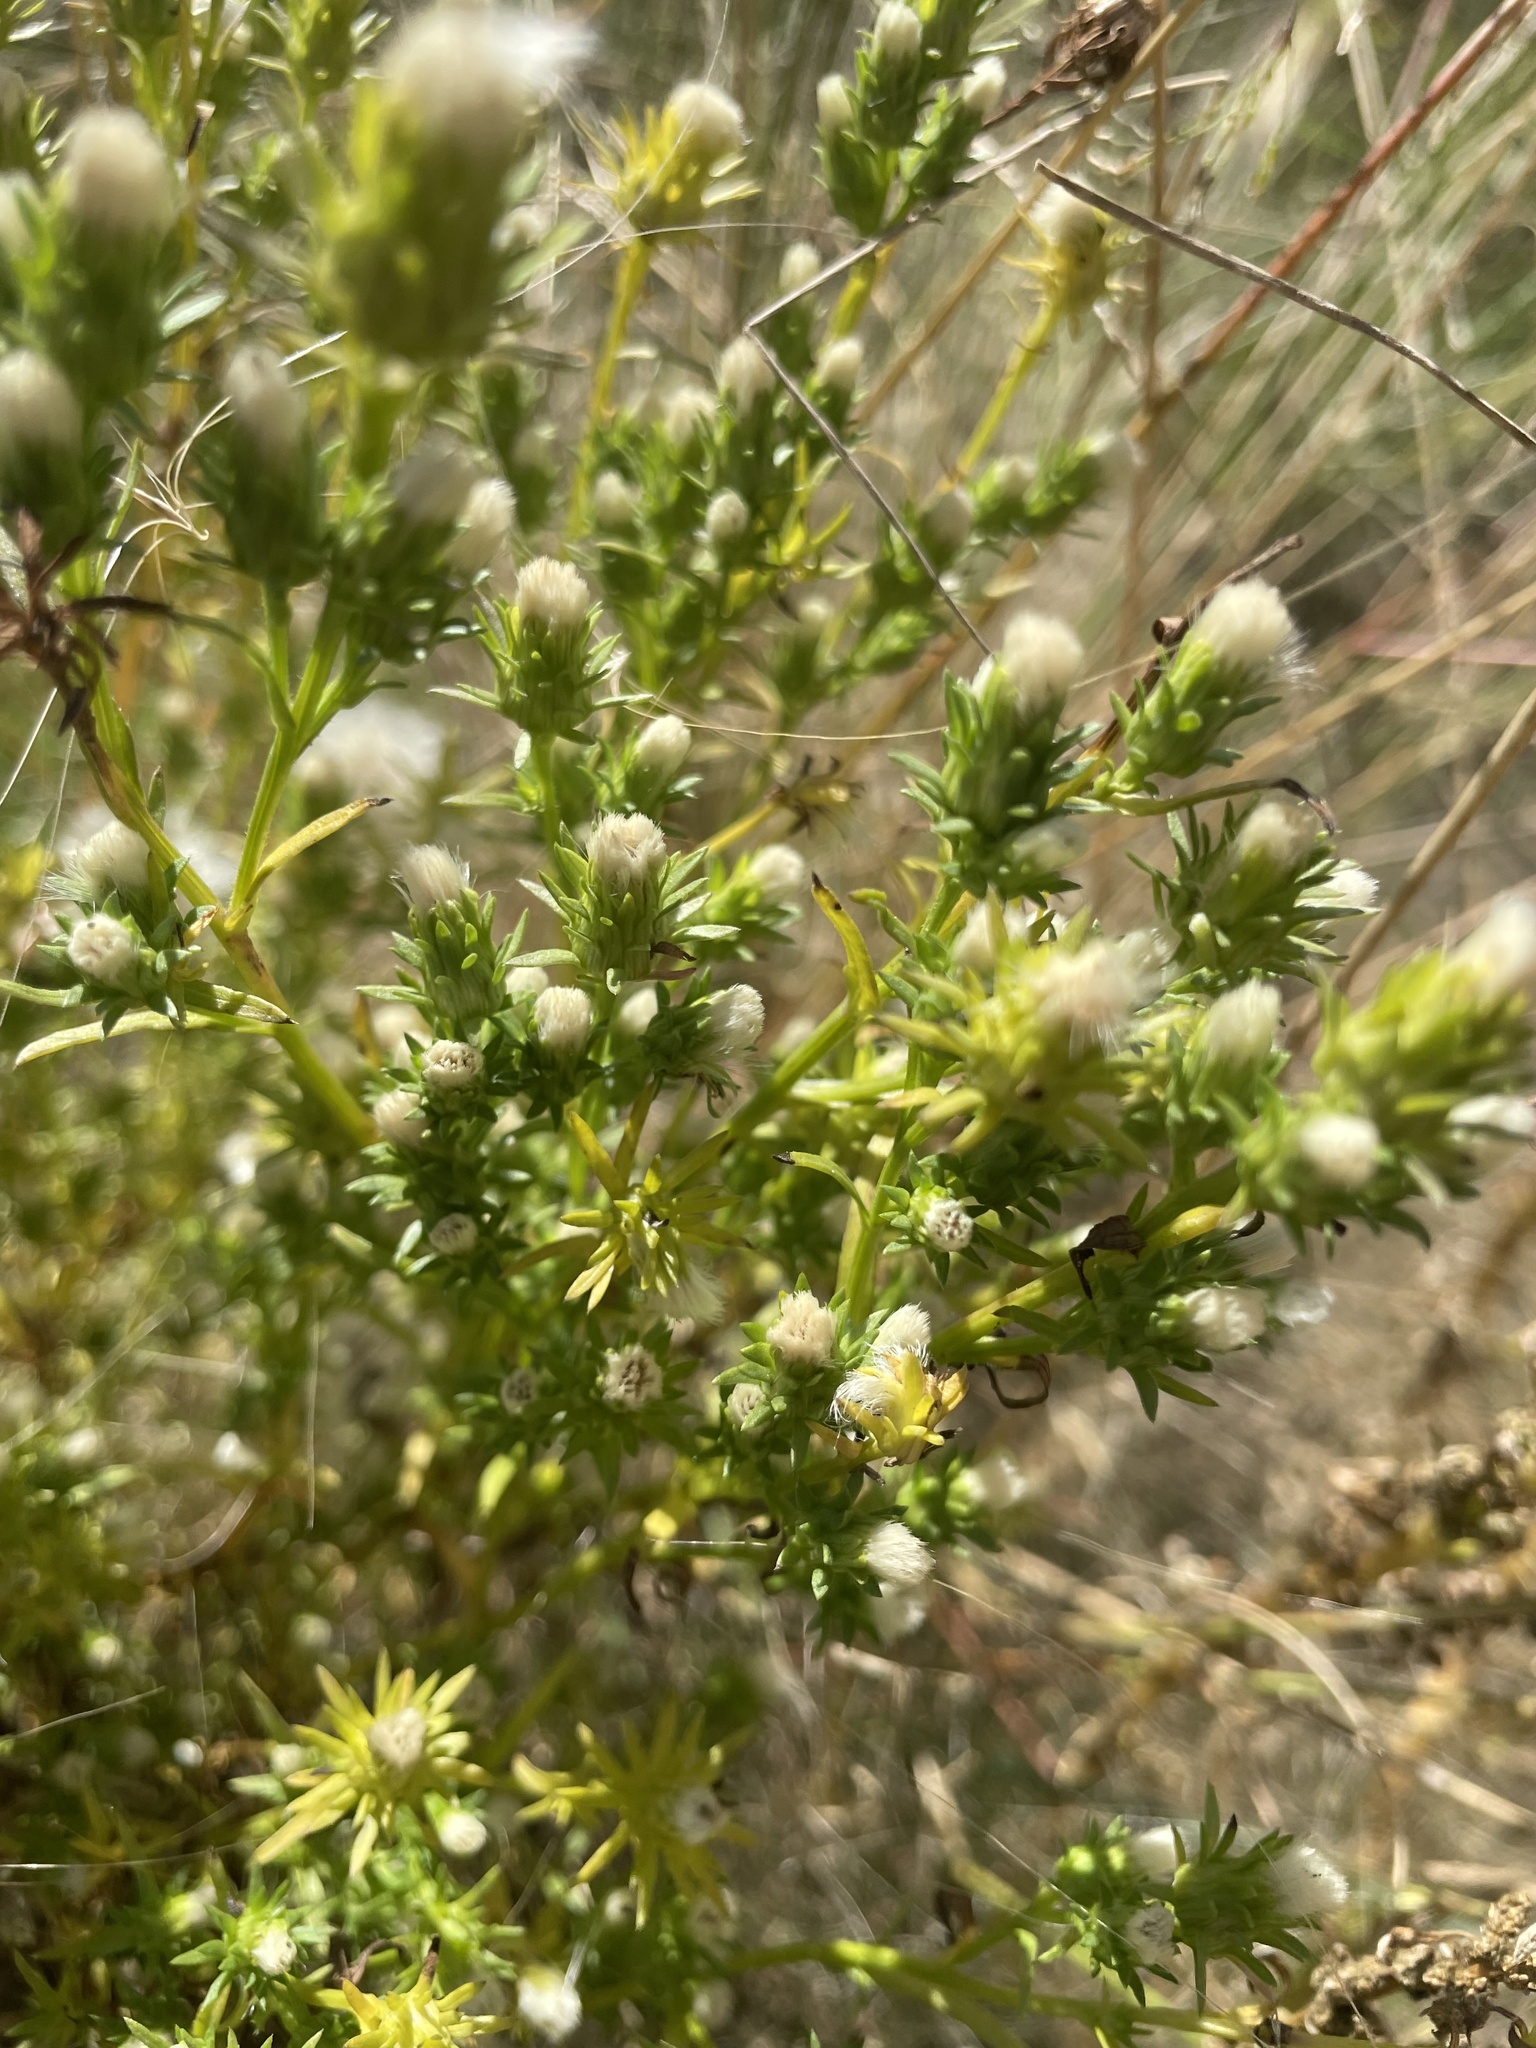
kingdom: Plantae
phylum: Tracheophyta
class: Magnoliopsida
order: Asterales
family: Asteraceae
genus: Symphyotrichum
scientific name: Symphyotrichum ciliatum
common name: Rayless annual aster
